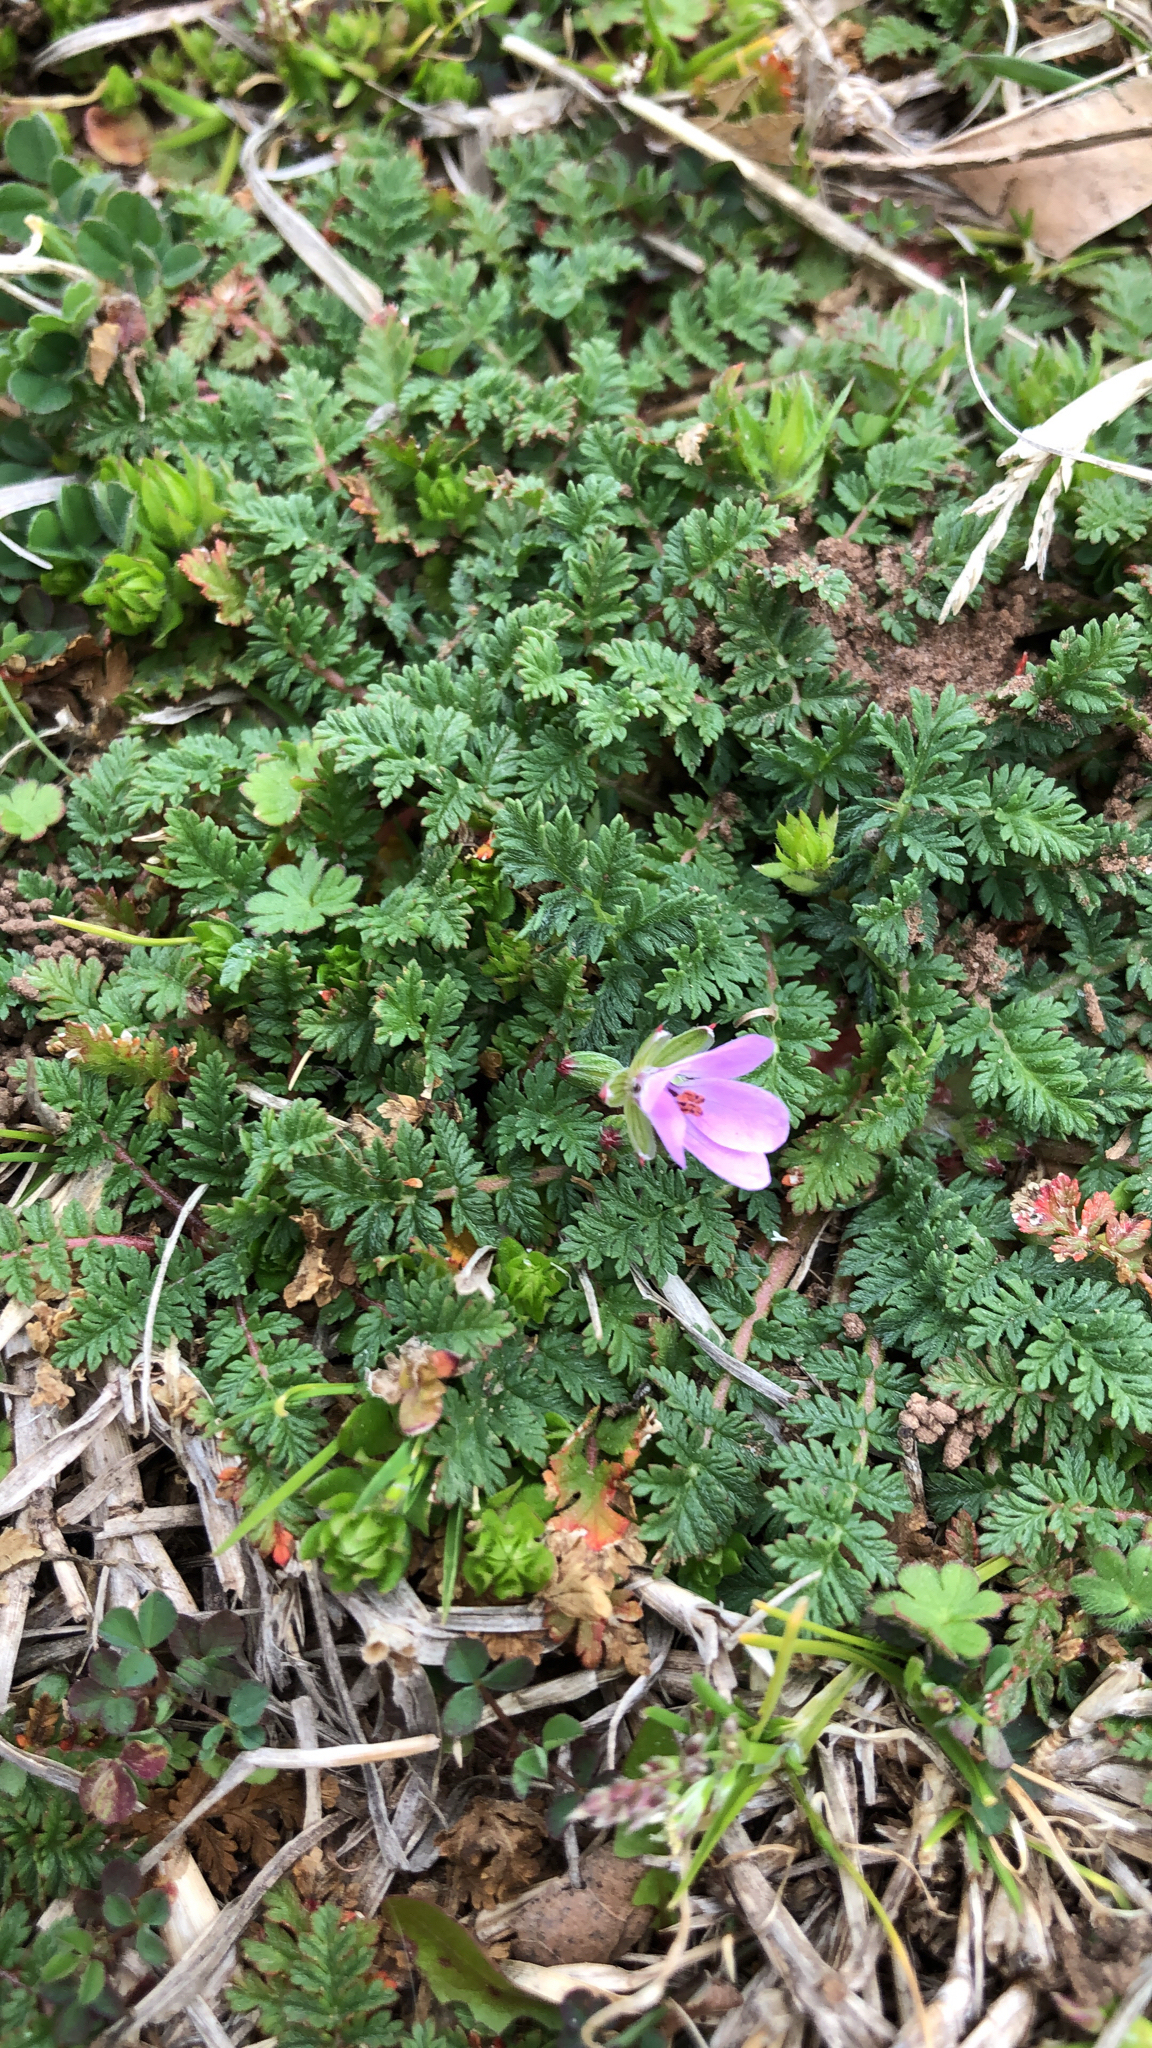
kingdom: Plantae
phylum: Tracheophyta
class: Magnoliopsida
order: Geraniales
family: Geraniaceae
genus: Erodium
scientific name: Erodium cicutarium
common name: Common stork's-bill
